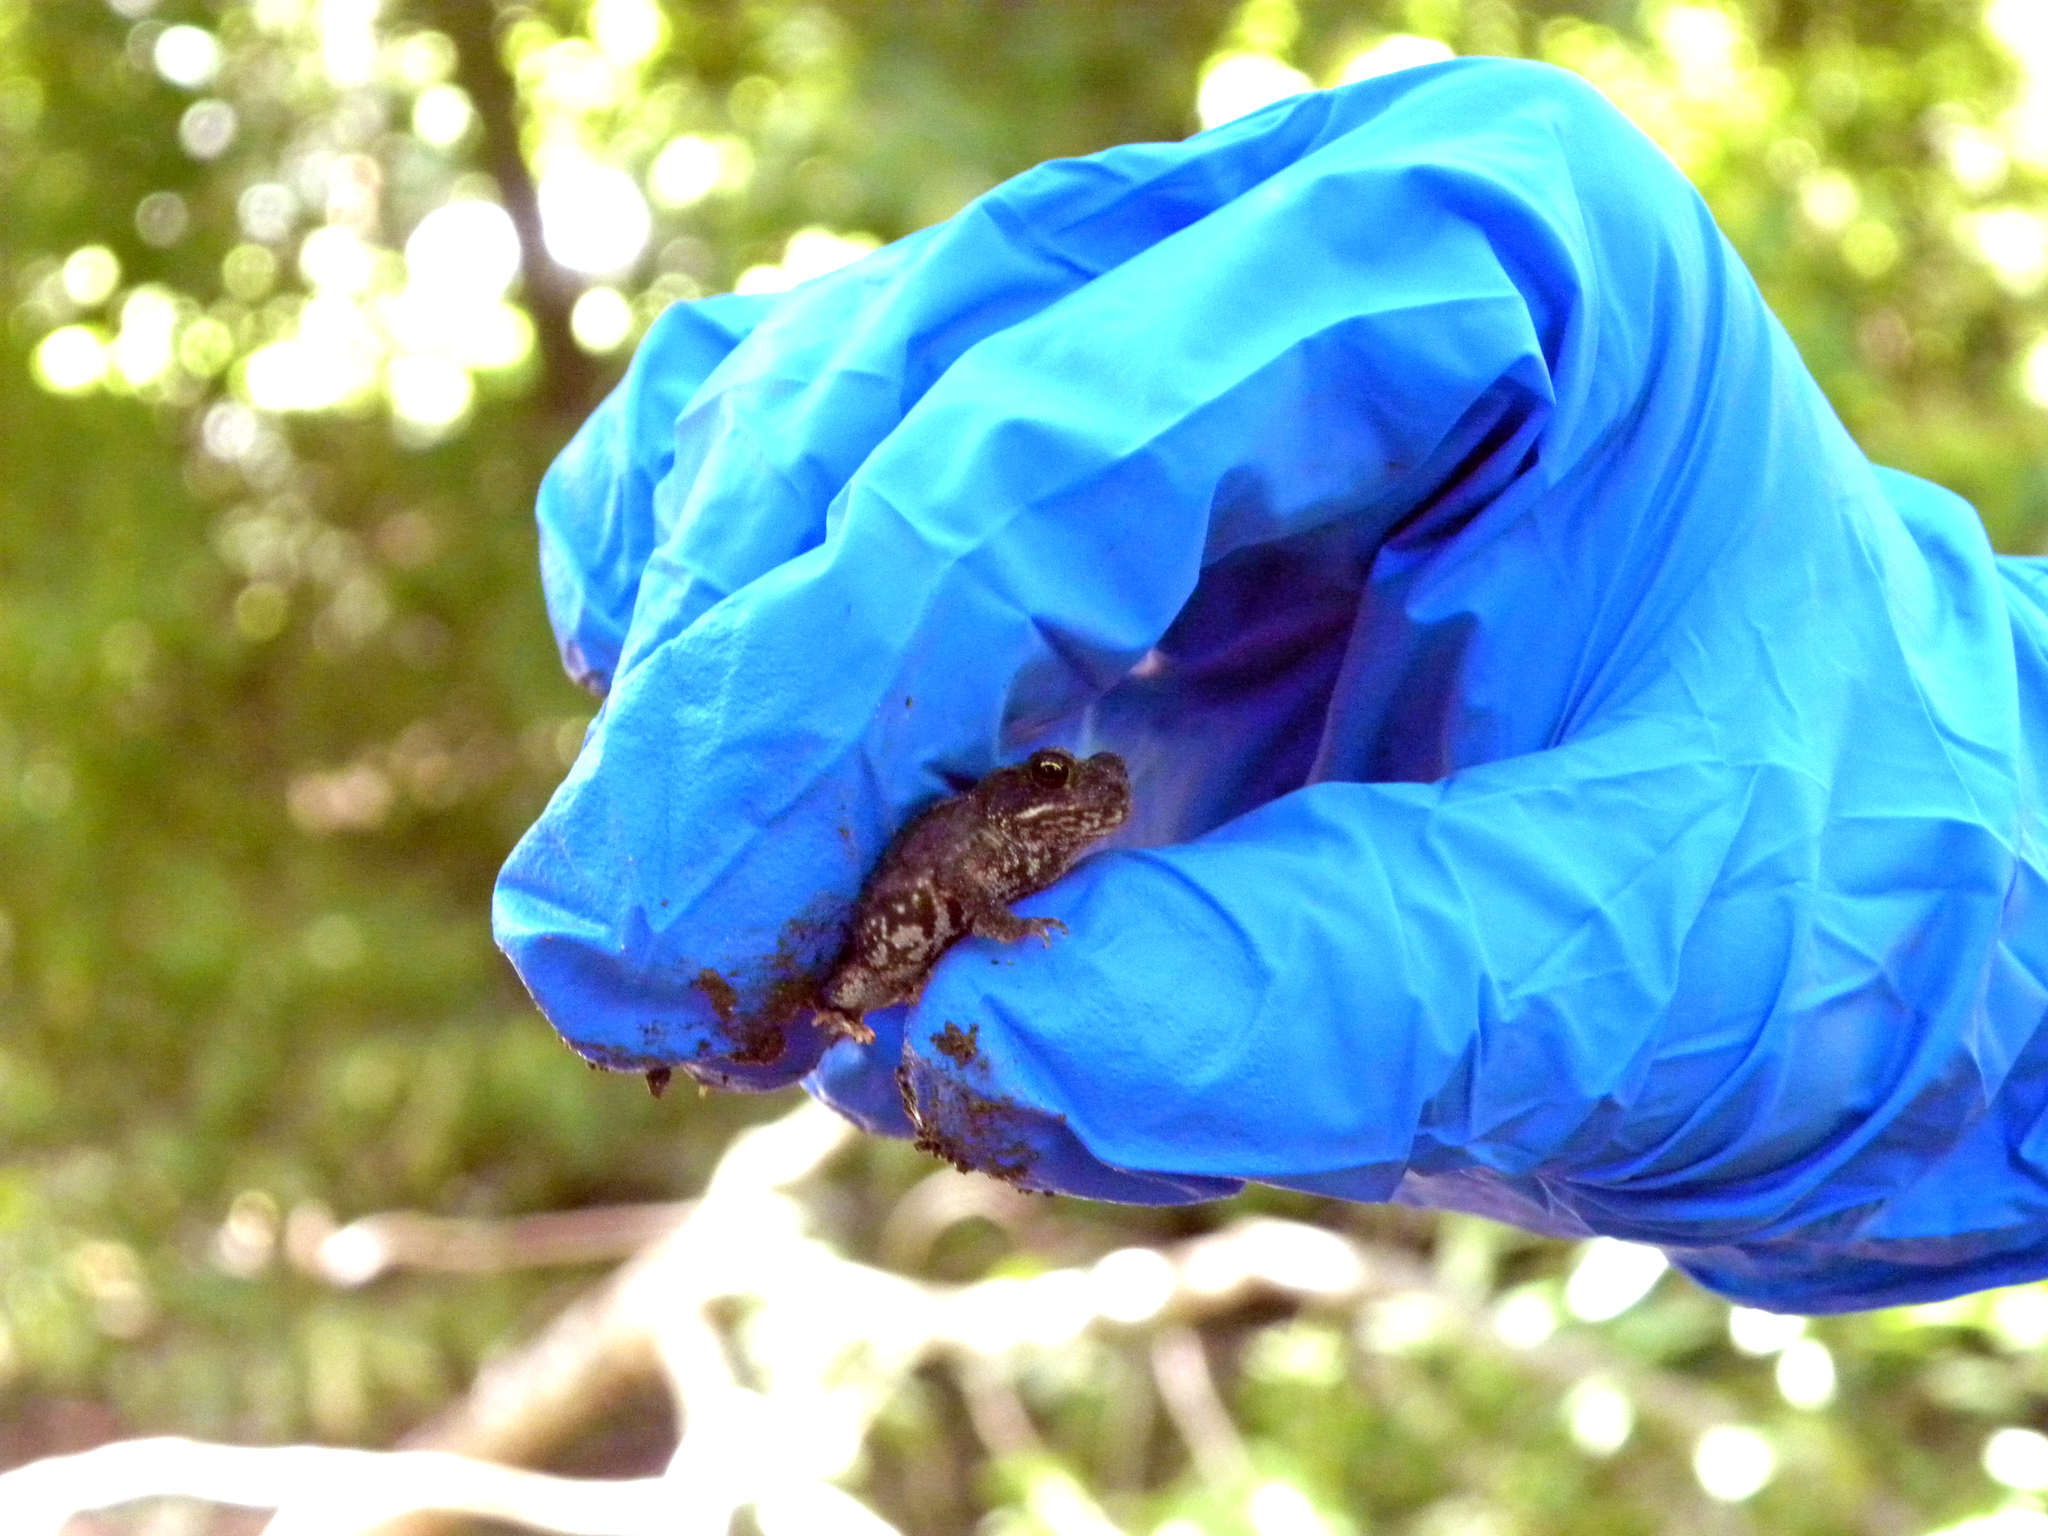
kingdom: Animalia
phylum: Chordata
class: Amphibia
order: Anura
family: Bufonidae
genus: Incilius
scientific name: Incilius nebulifer
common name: Gulf coast toad
